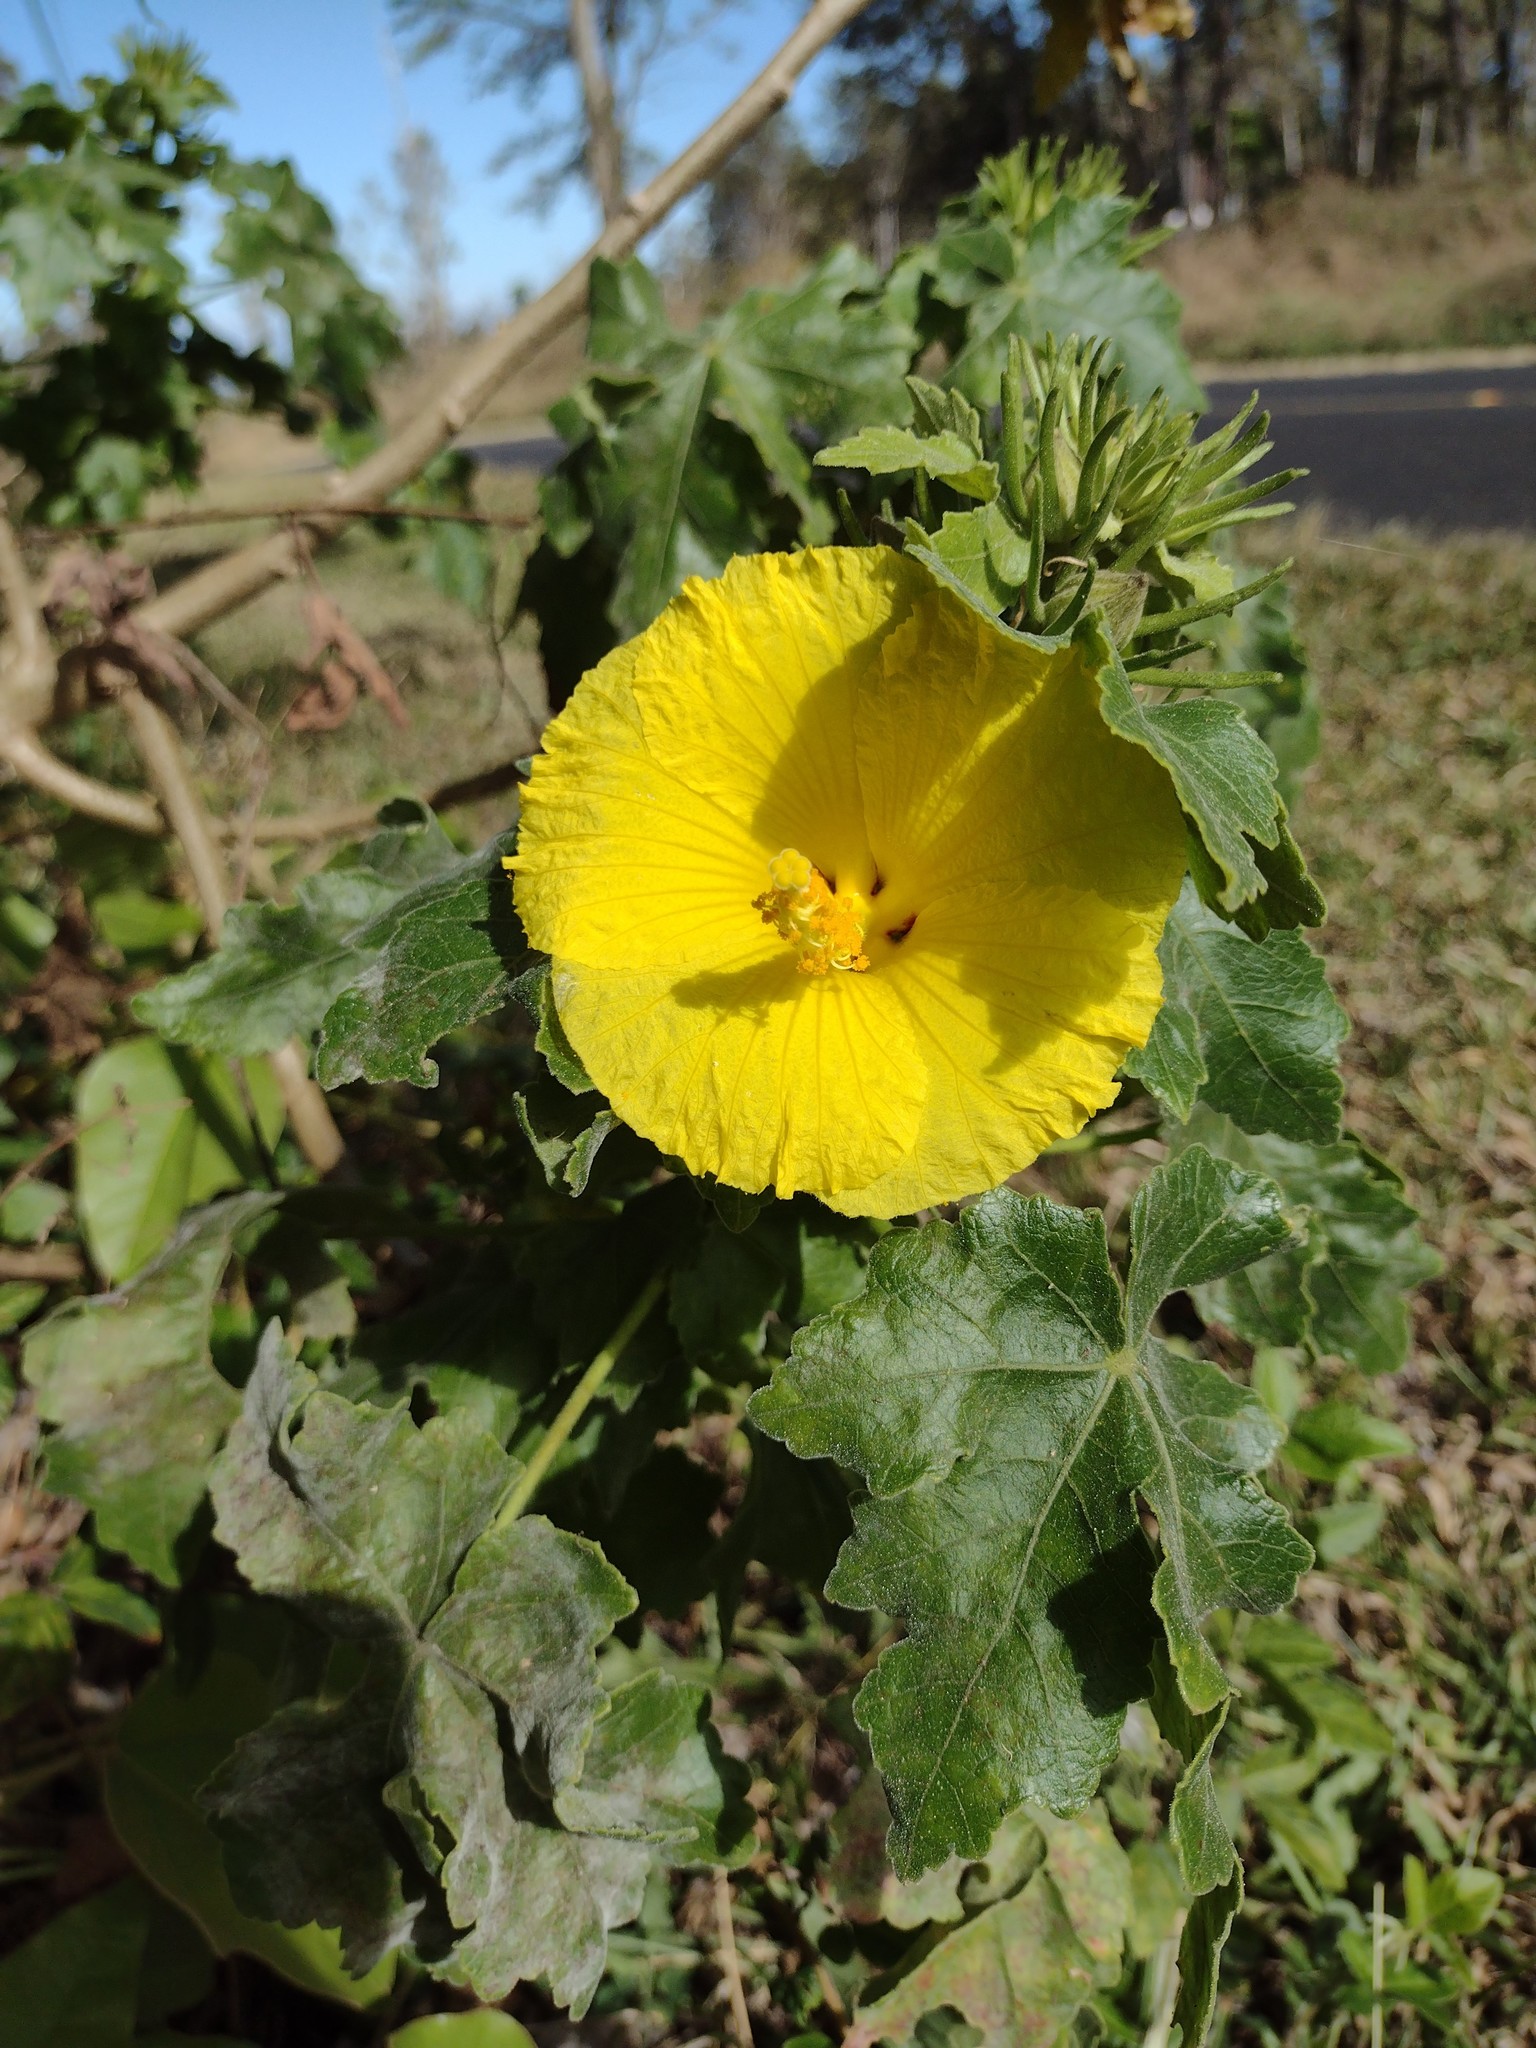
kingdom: Plantae
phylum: Tracheophyta
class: Magnoliopsida
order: Malvales
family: Malvaceae
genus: Hibiscus
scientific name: Hibiscus brackenridgei
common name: Native yellow hibiscus
